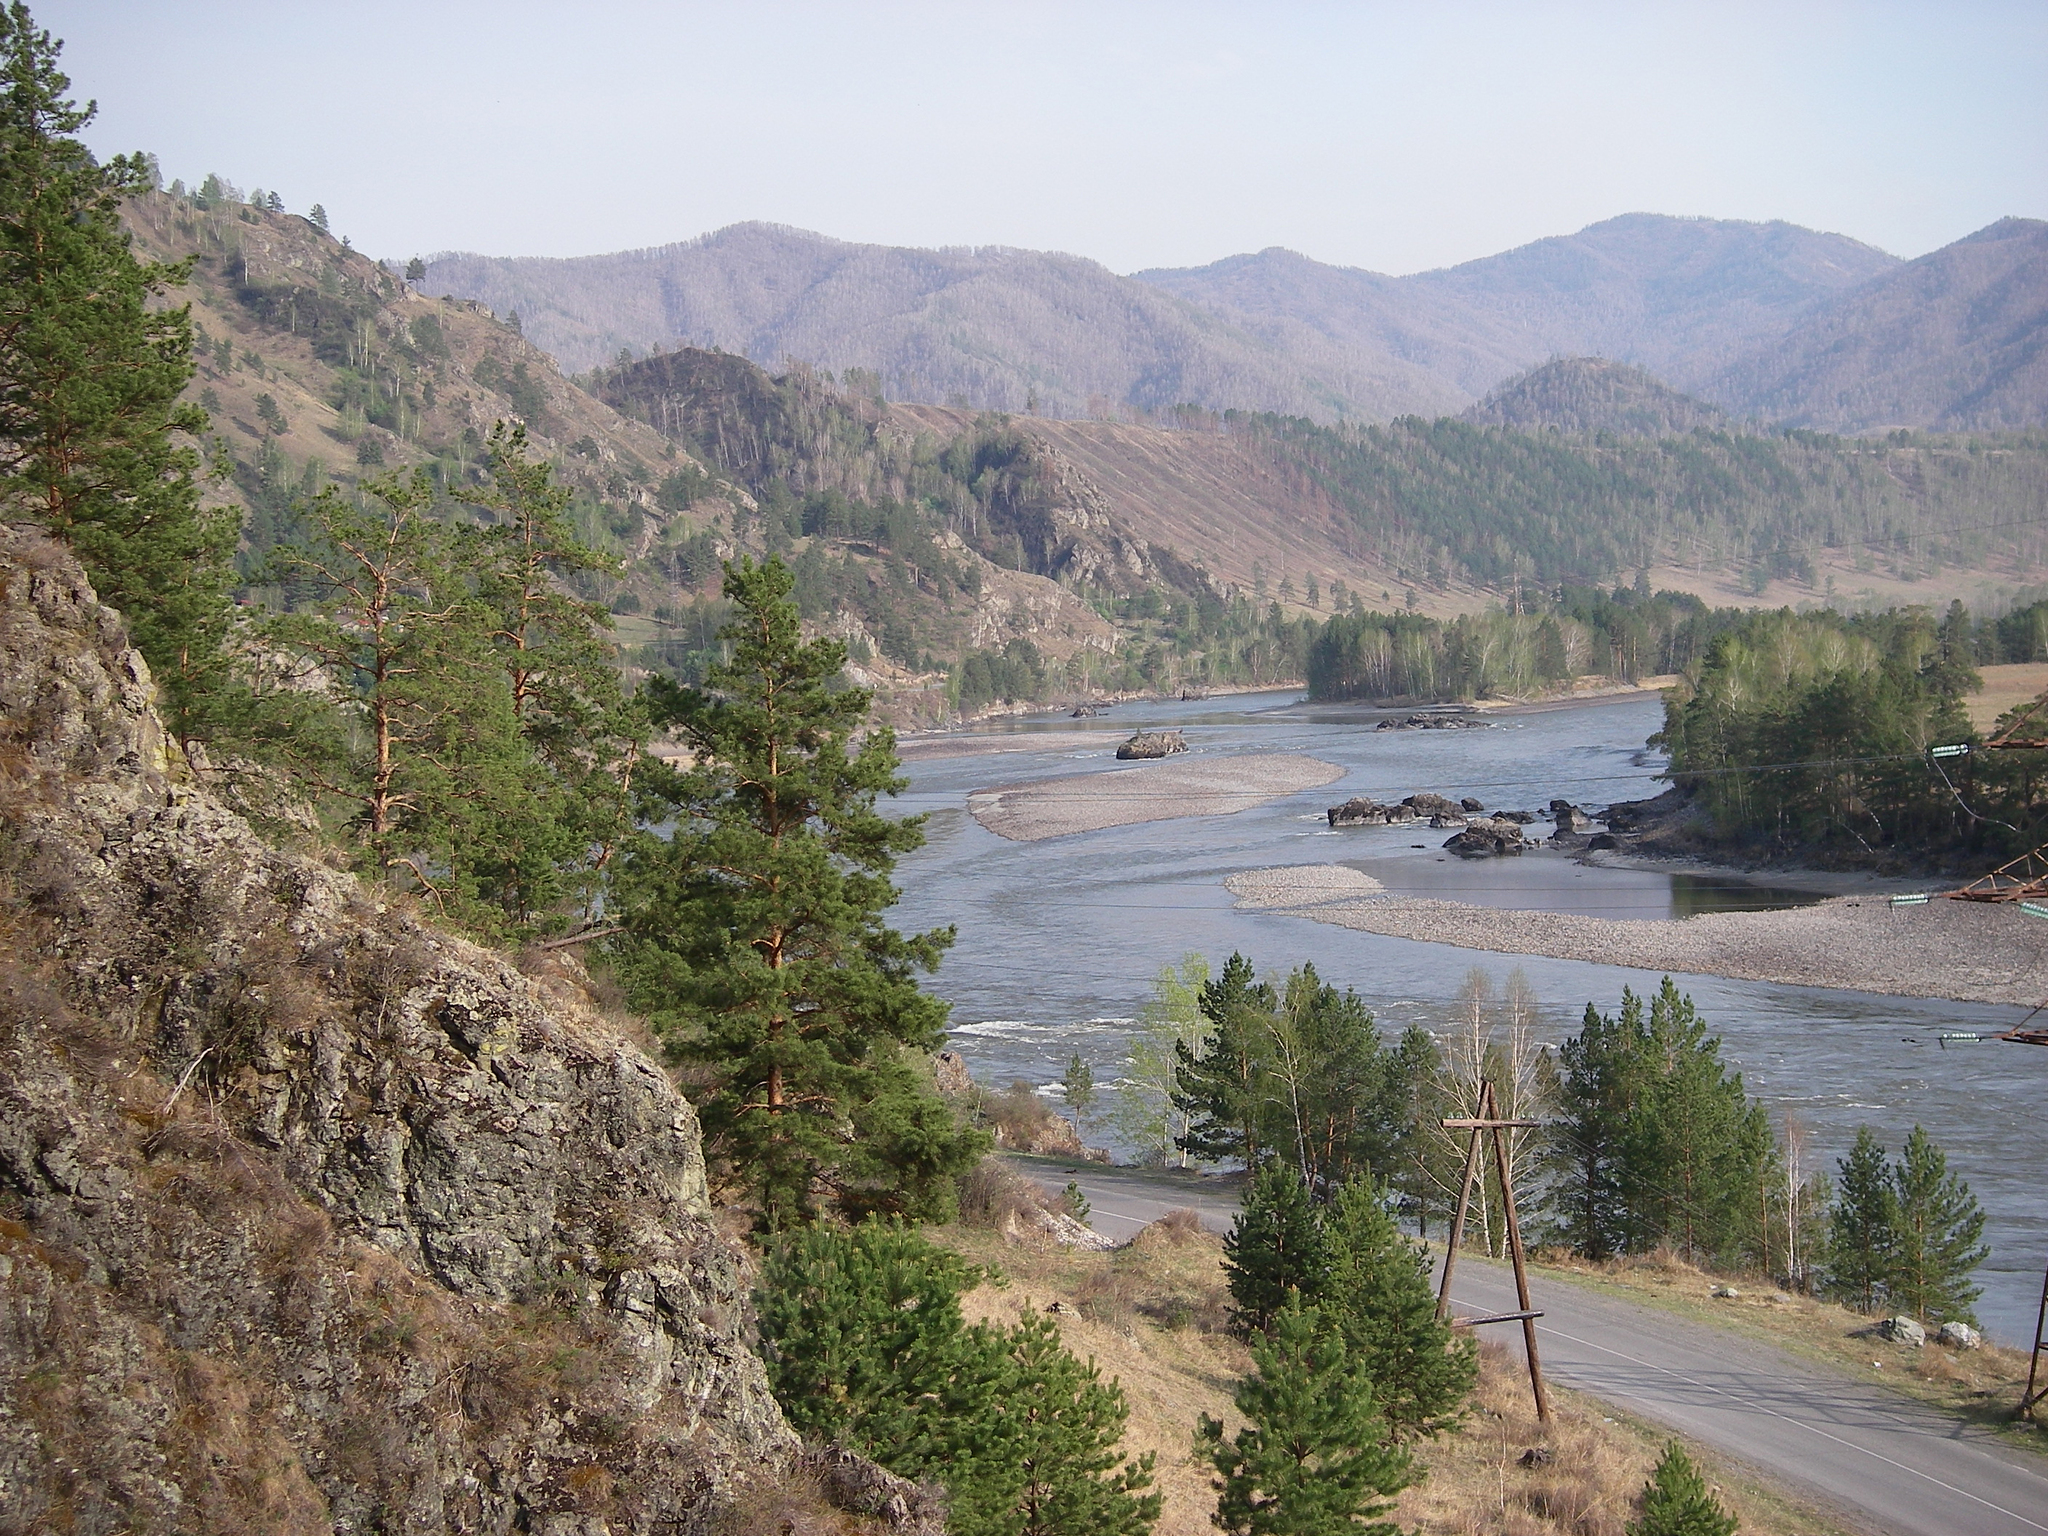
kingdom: Plantae
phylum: Tracheophyta
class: Pinopsida
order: Pinales
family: Pinaceae
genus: Pinus
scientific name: Pinus sylvestris
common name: Scots pine
